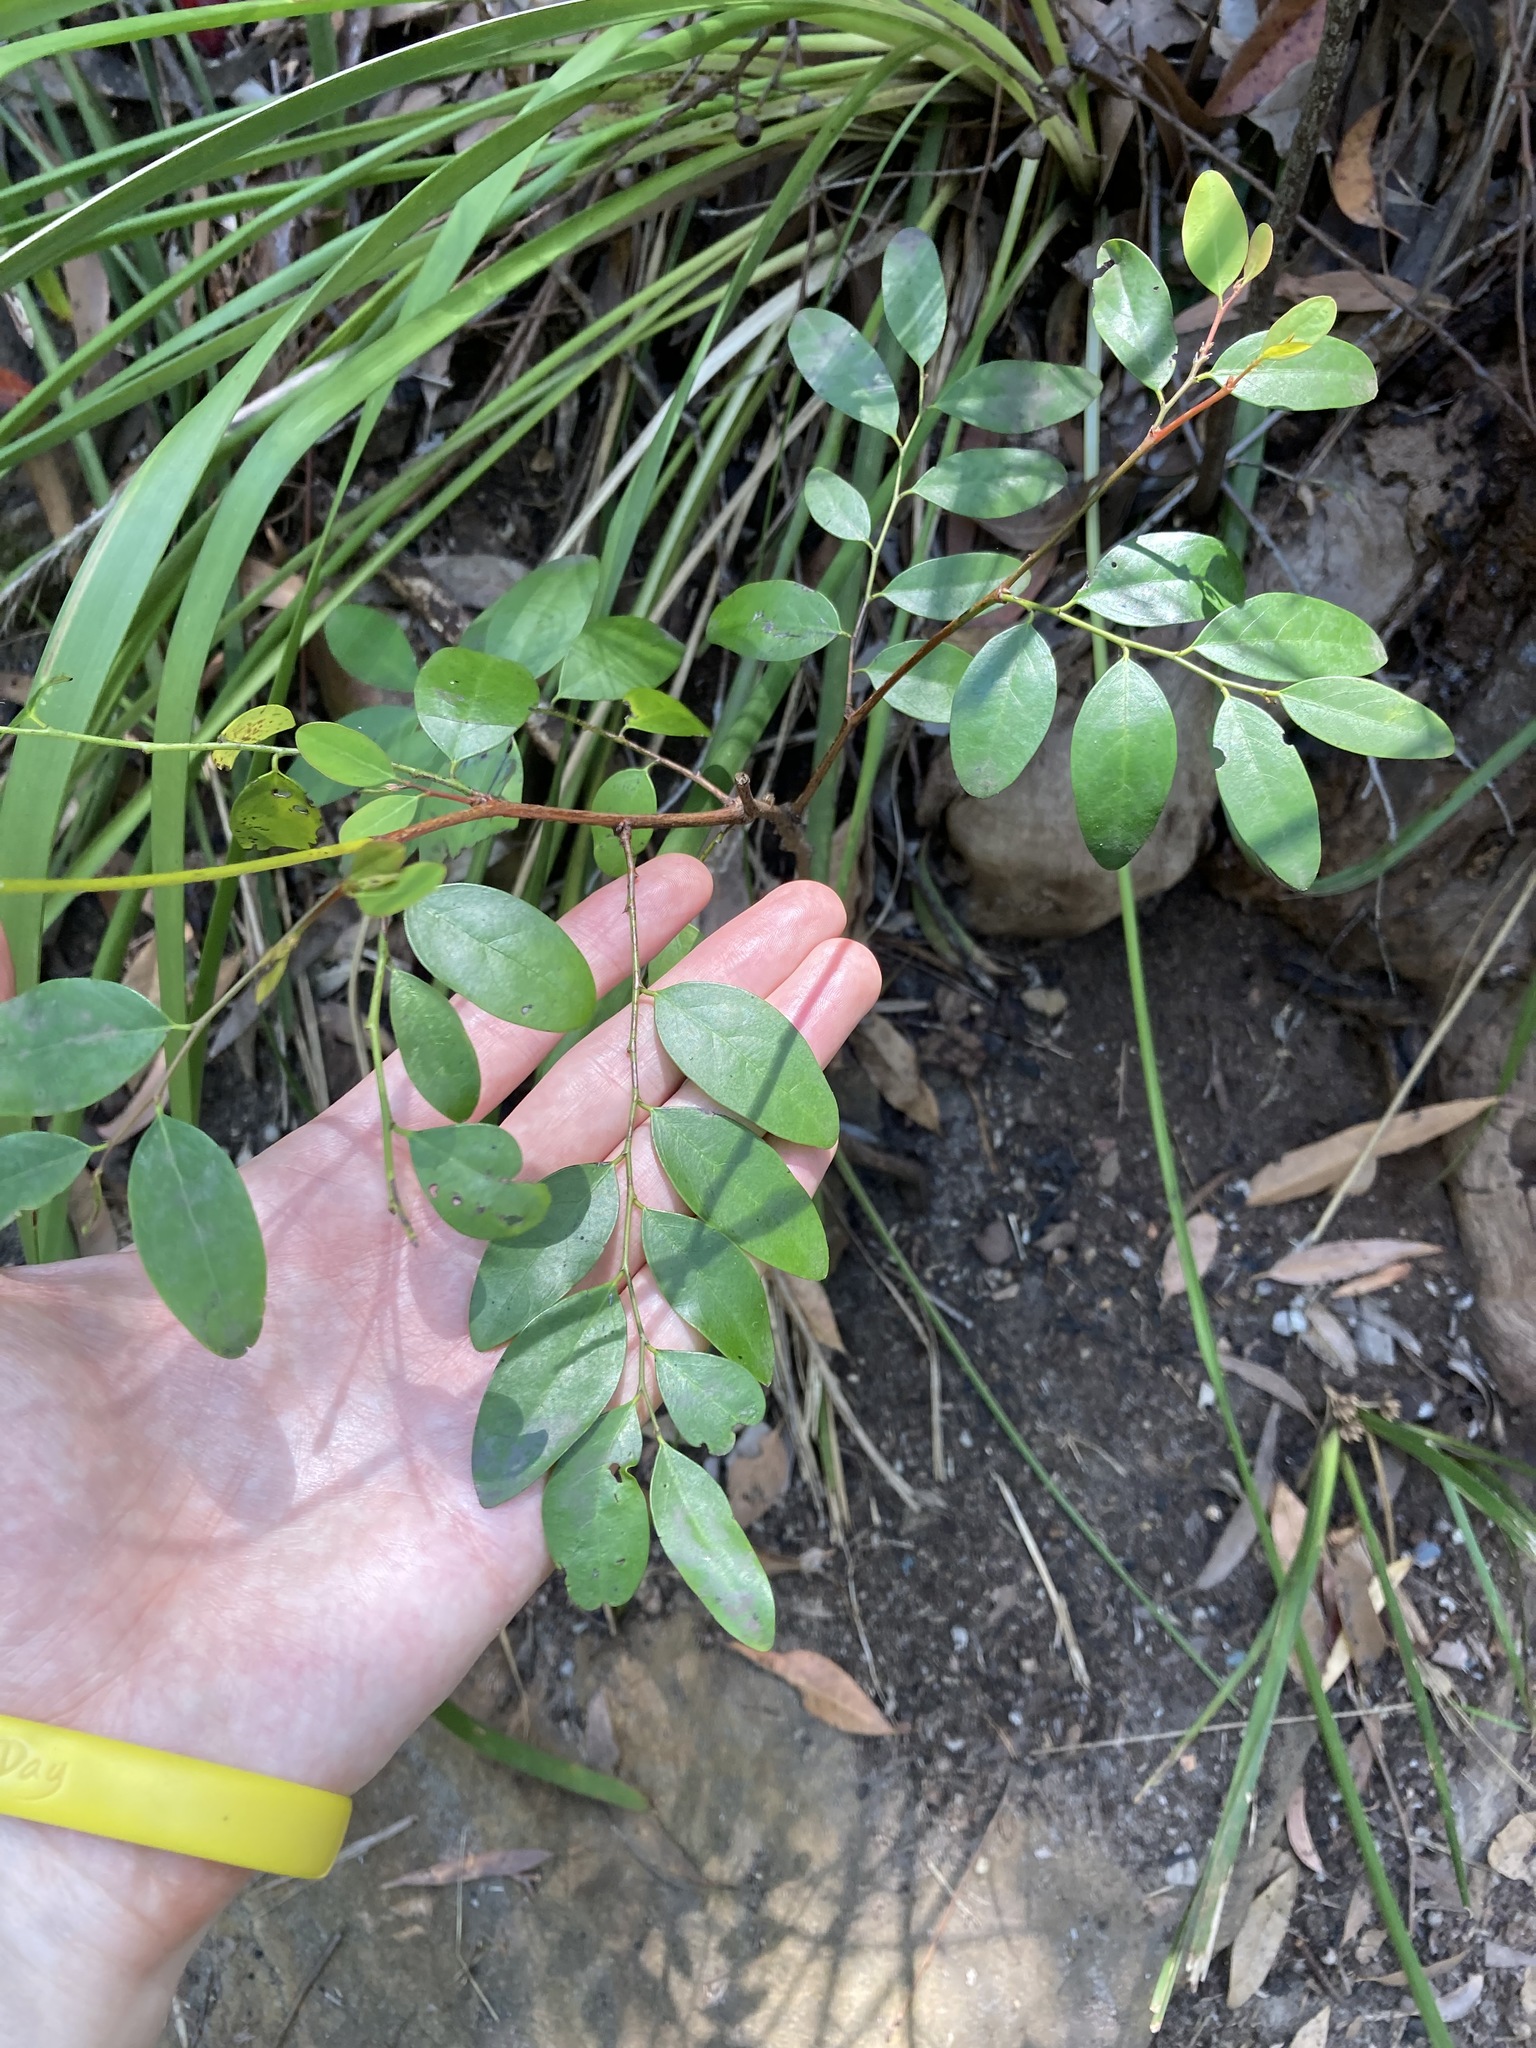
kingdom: Plantae
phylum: Tracheophyta
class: Magnoliopsida
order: Malpighiales
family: Phyllanthaceae
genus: Breynia
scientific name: Breynia oblongifolia
